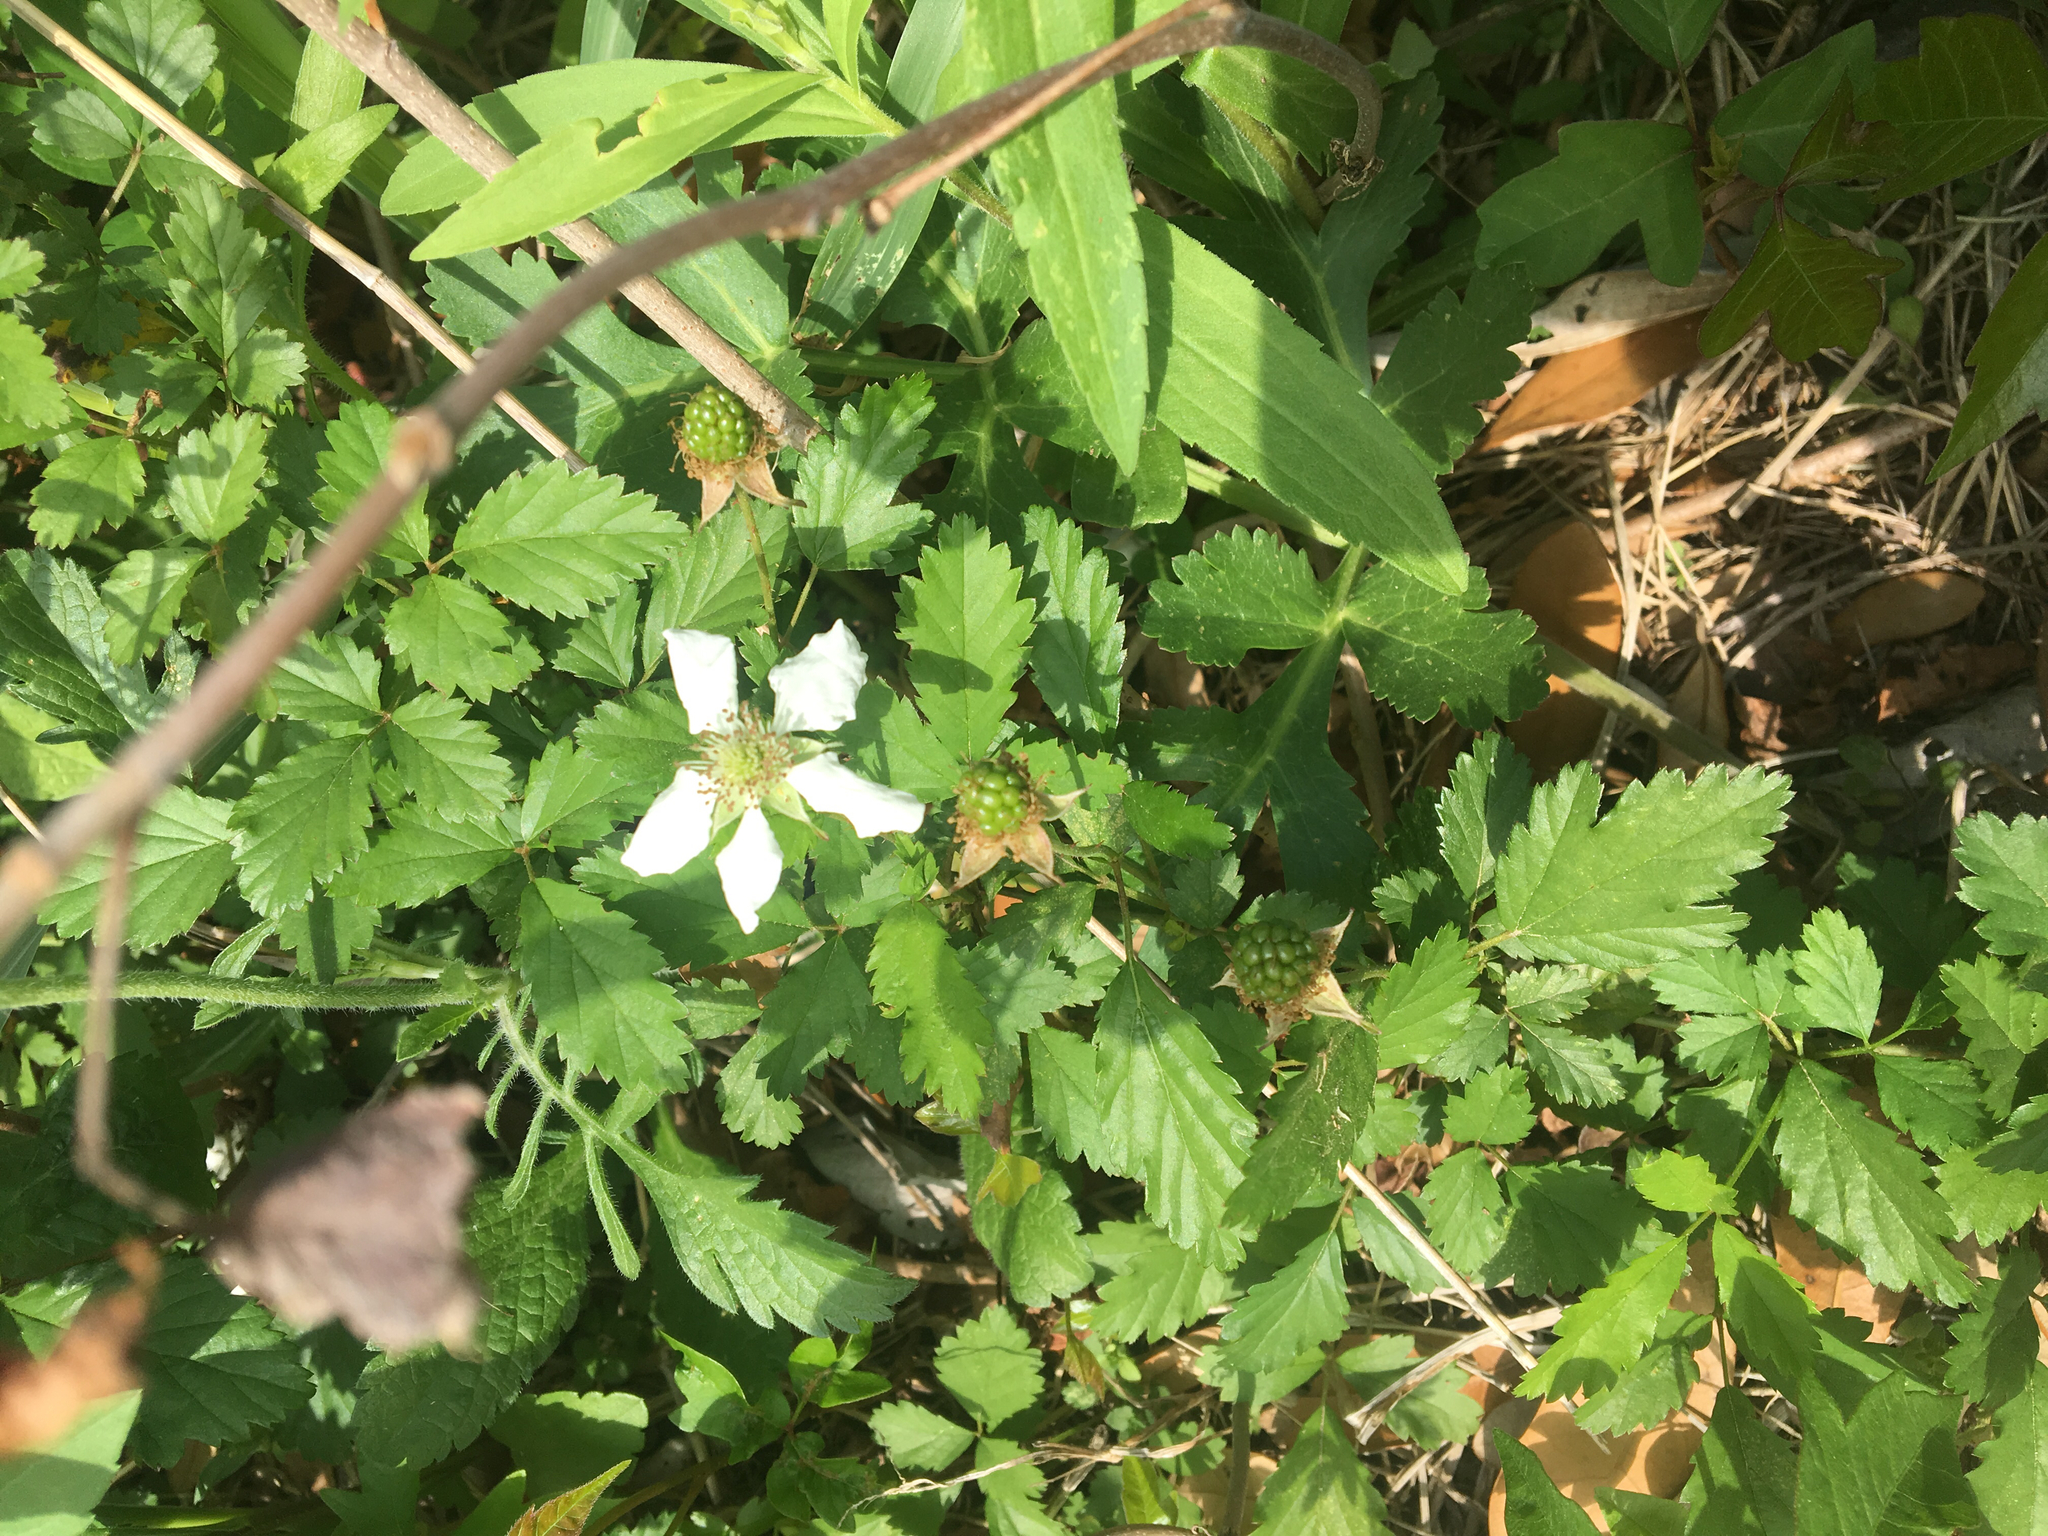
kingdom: Plantae
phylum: Tracheophyta
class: Magnoliopsida
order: Rosales
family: Rosaceae
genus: Rubus
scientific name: Rubus trivialis
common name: Southern dewberry
